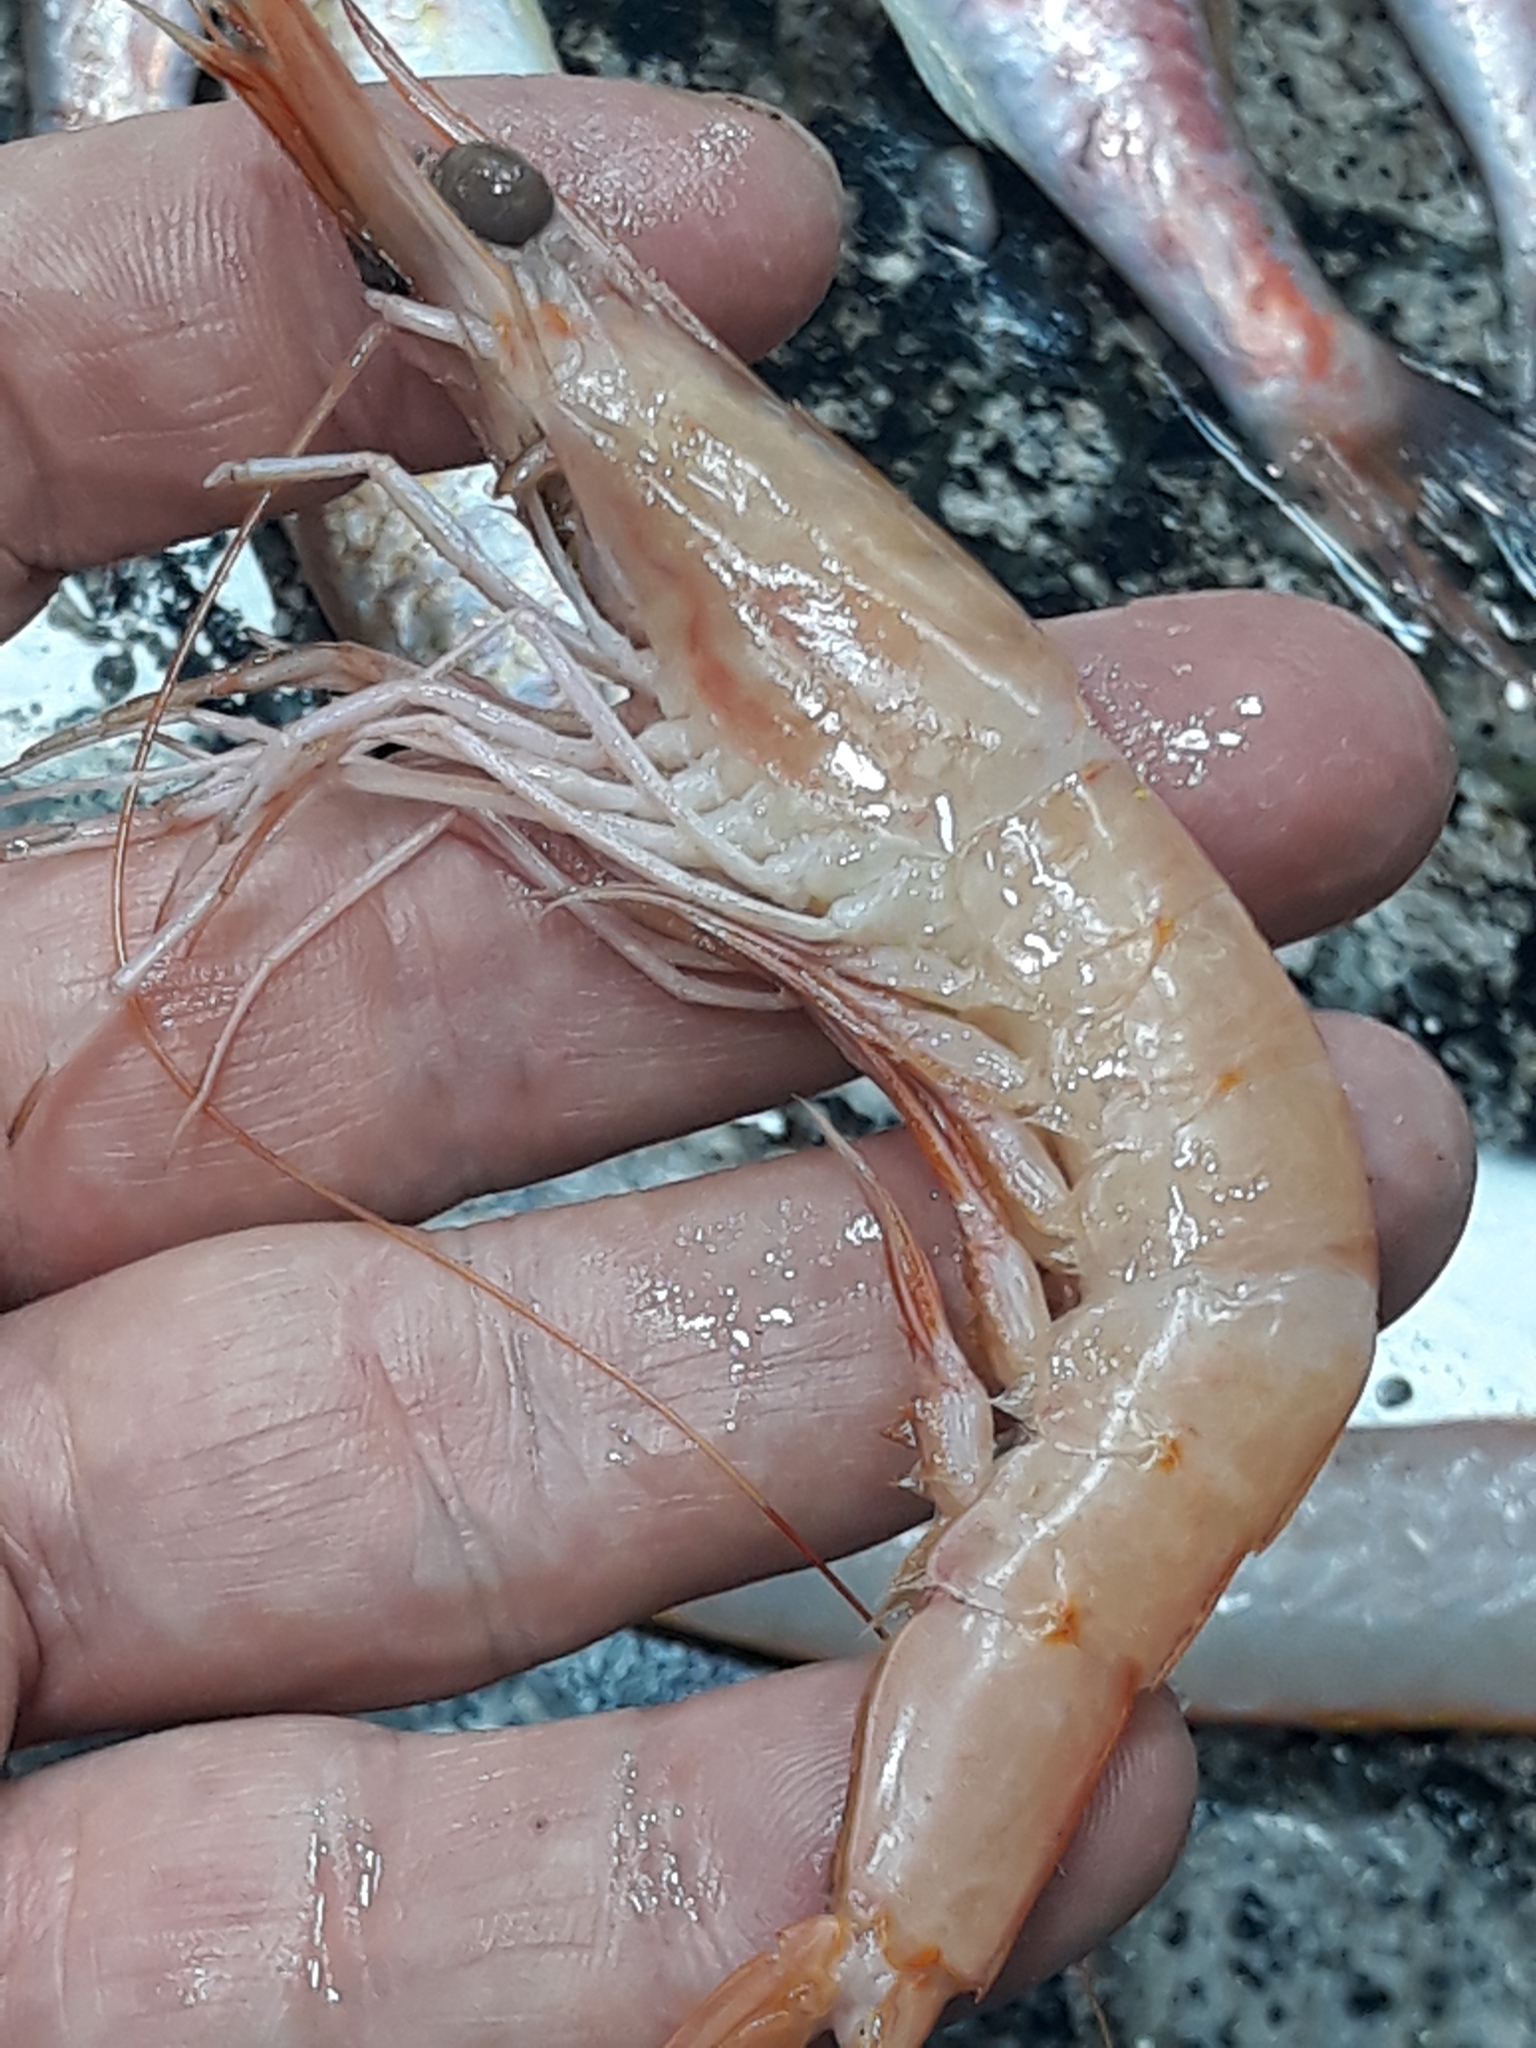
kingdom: Animalia
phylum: Arthropoda
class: Malacostraca
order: Decapoda
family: Penaeidae
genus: Parapenaeus
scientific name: Parapenaeus longirostris
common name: Deep-water rose shrimp
